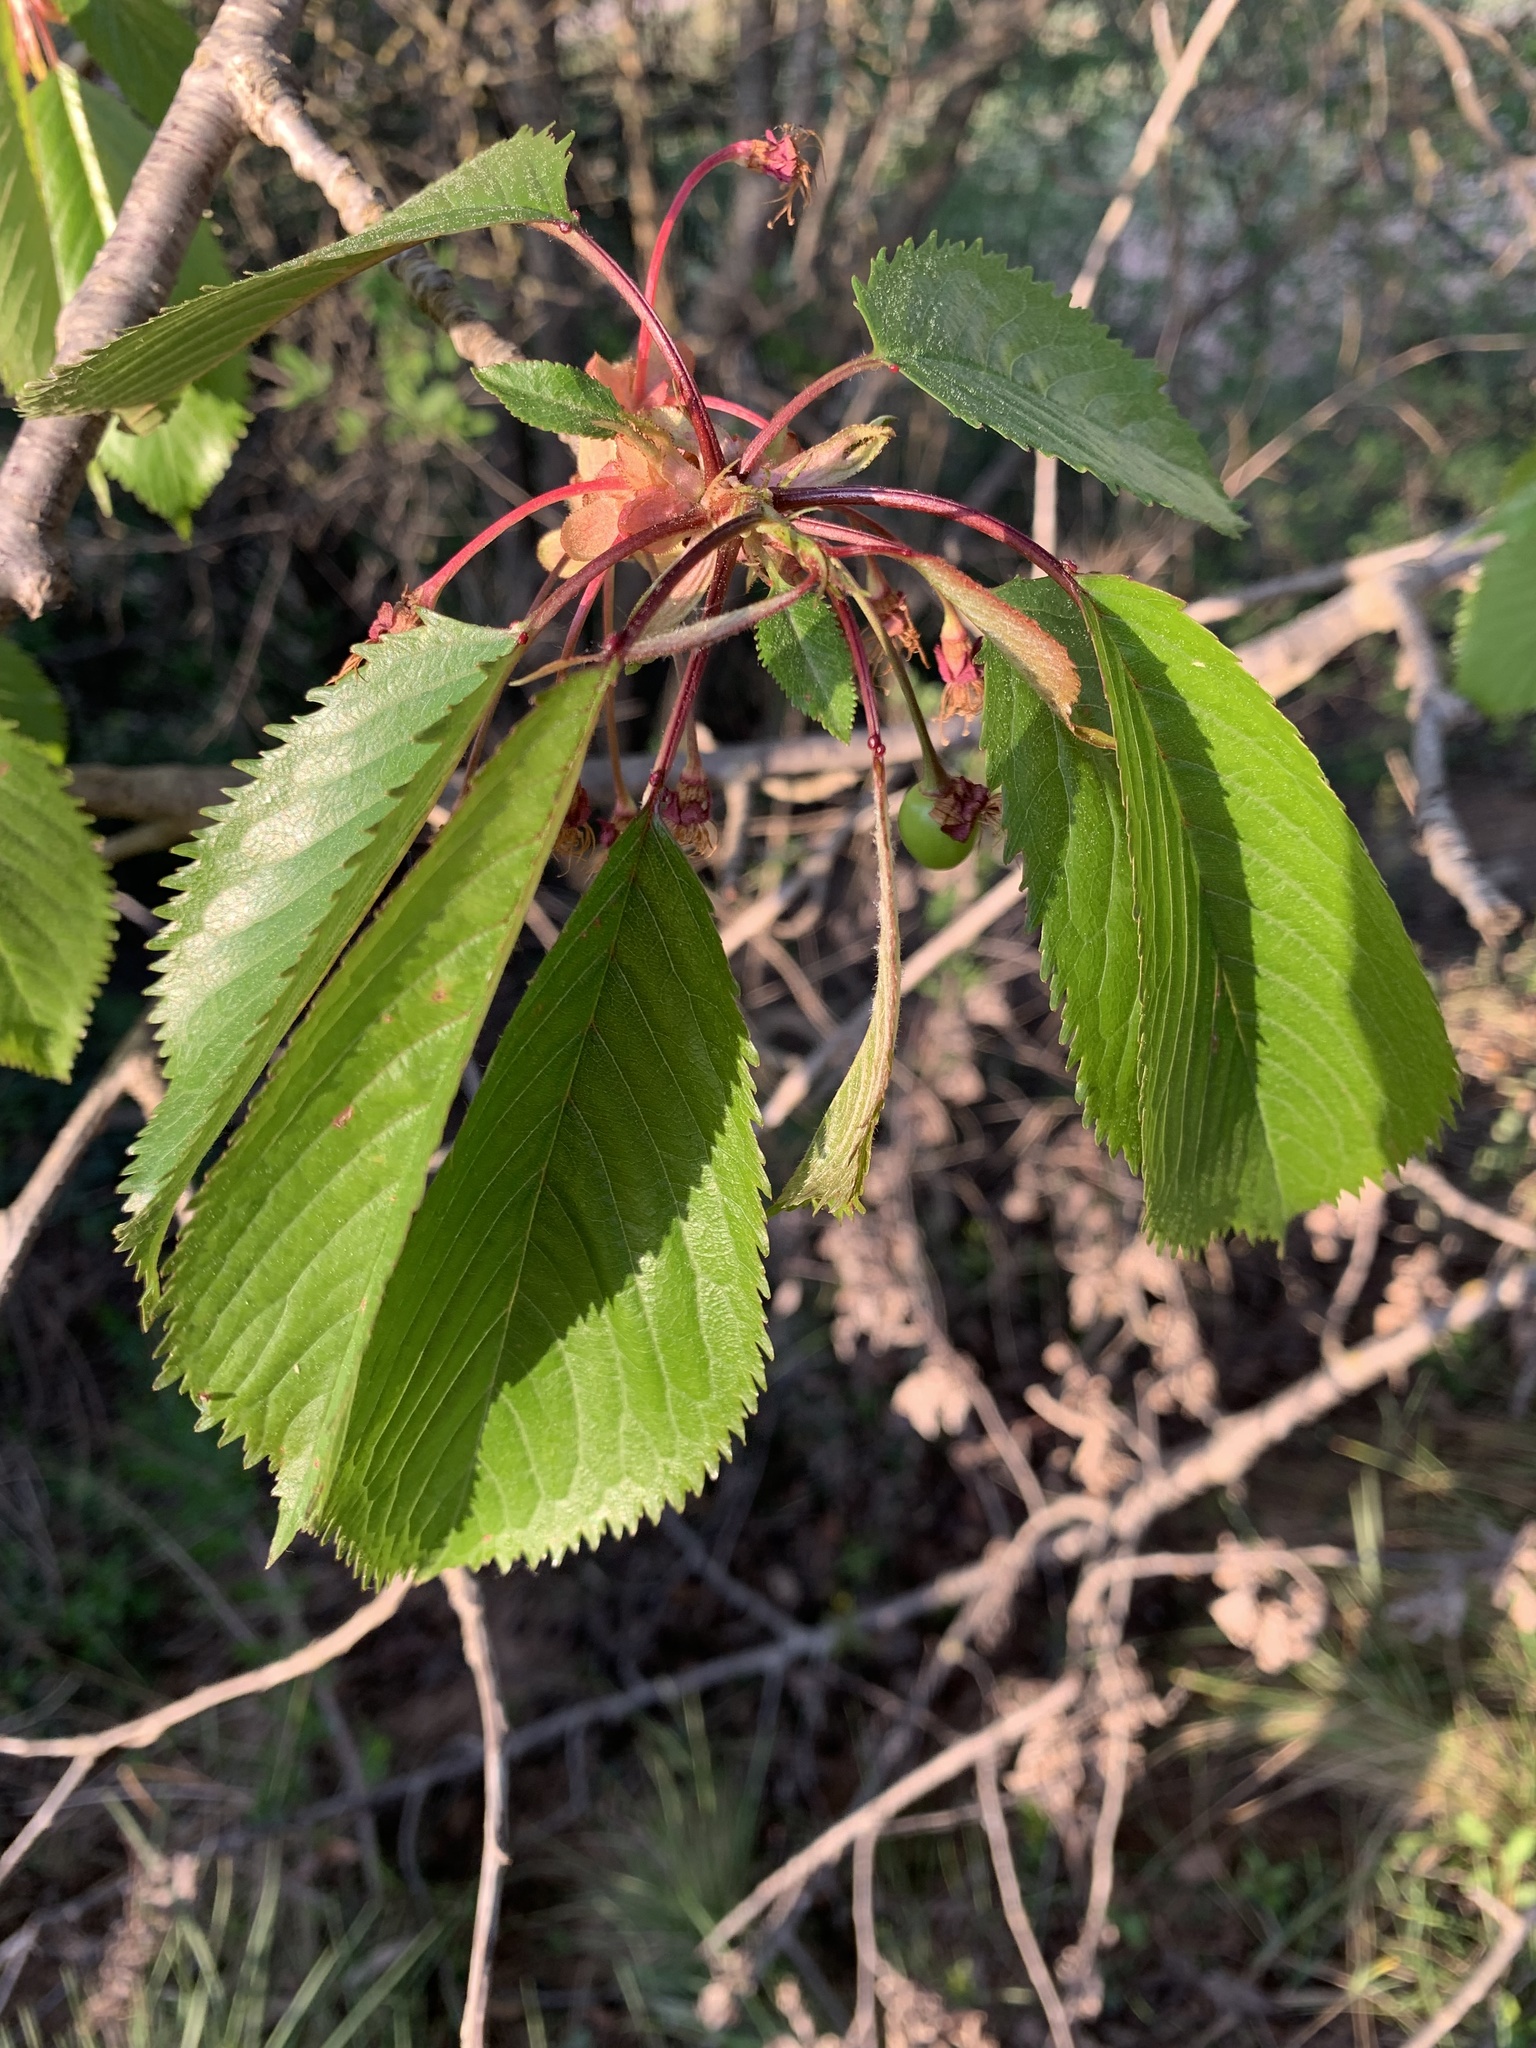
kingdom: Plantae
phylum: Tracheophyta
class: Magnoliopsida
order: Rosales
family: Rosaceae
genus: Prunus
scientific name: Prunus avium
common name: Sweet cherry
